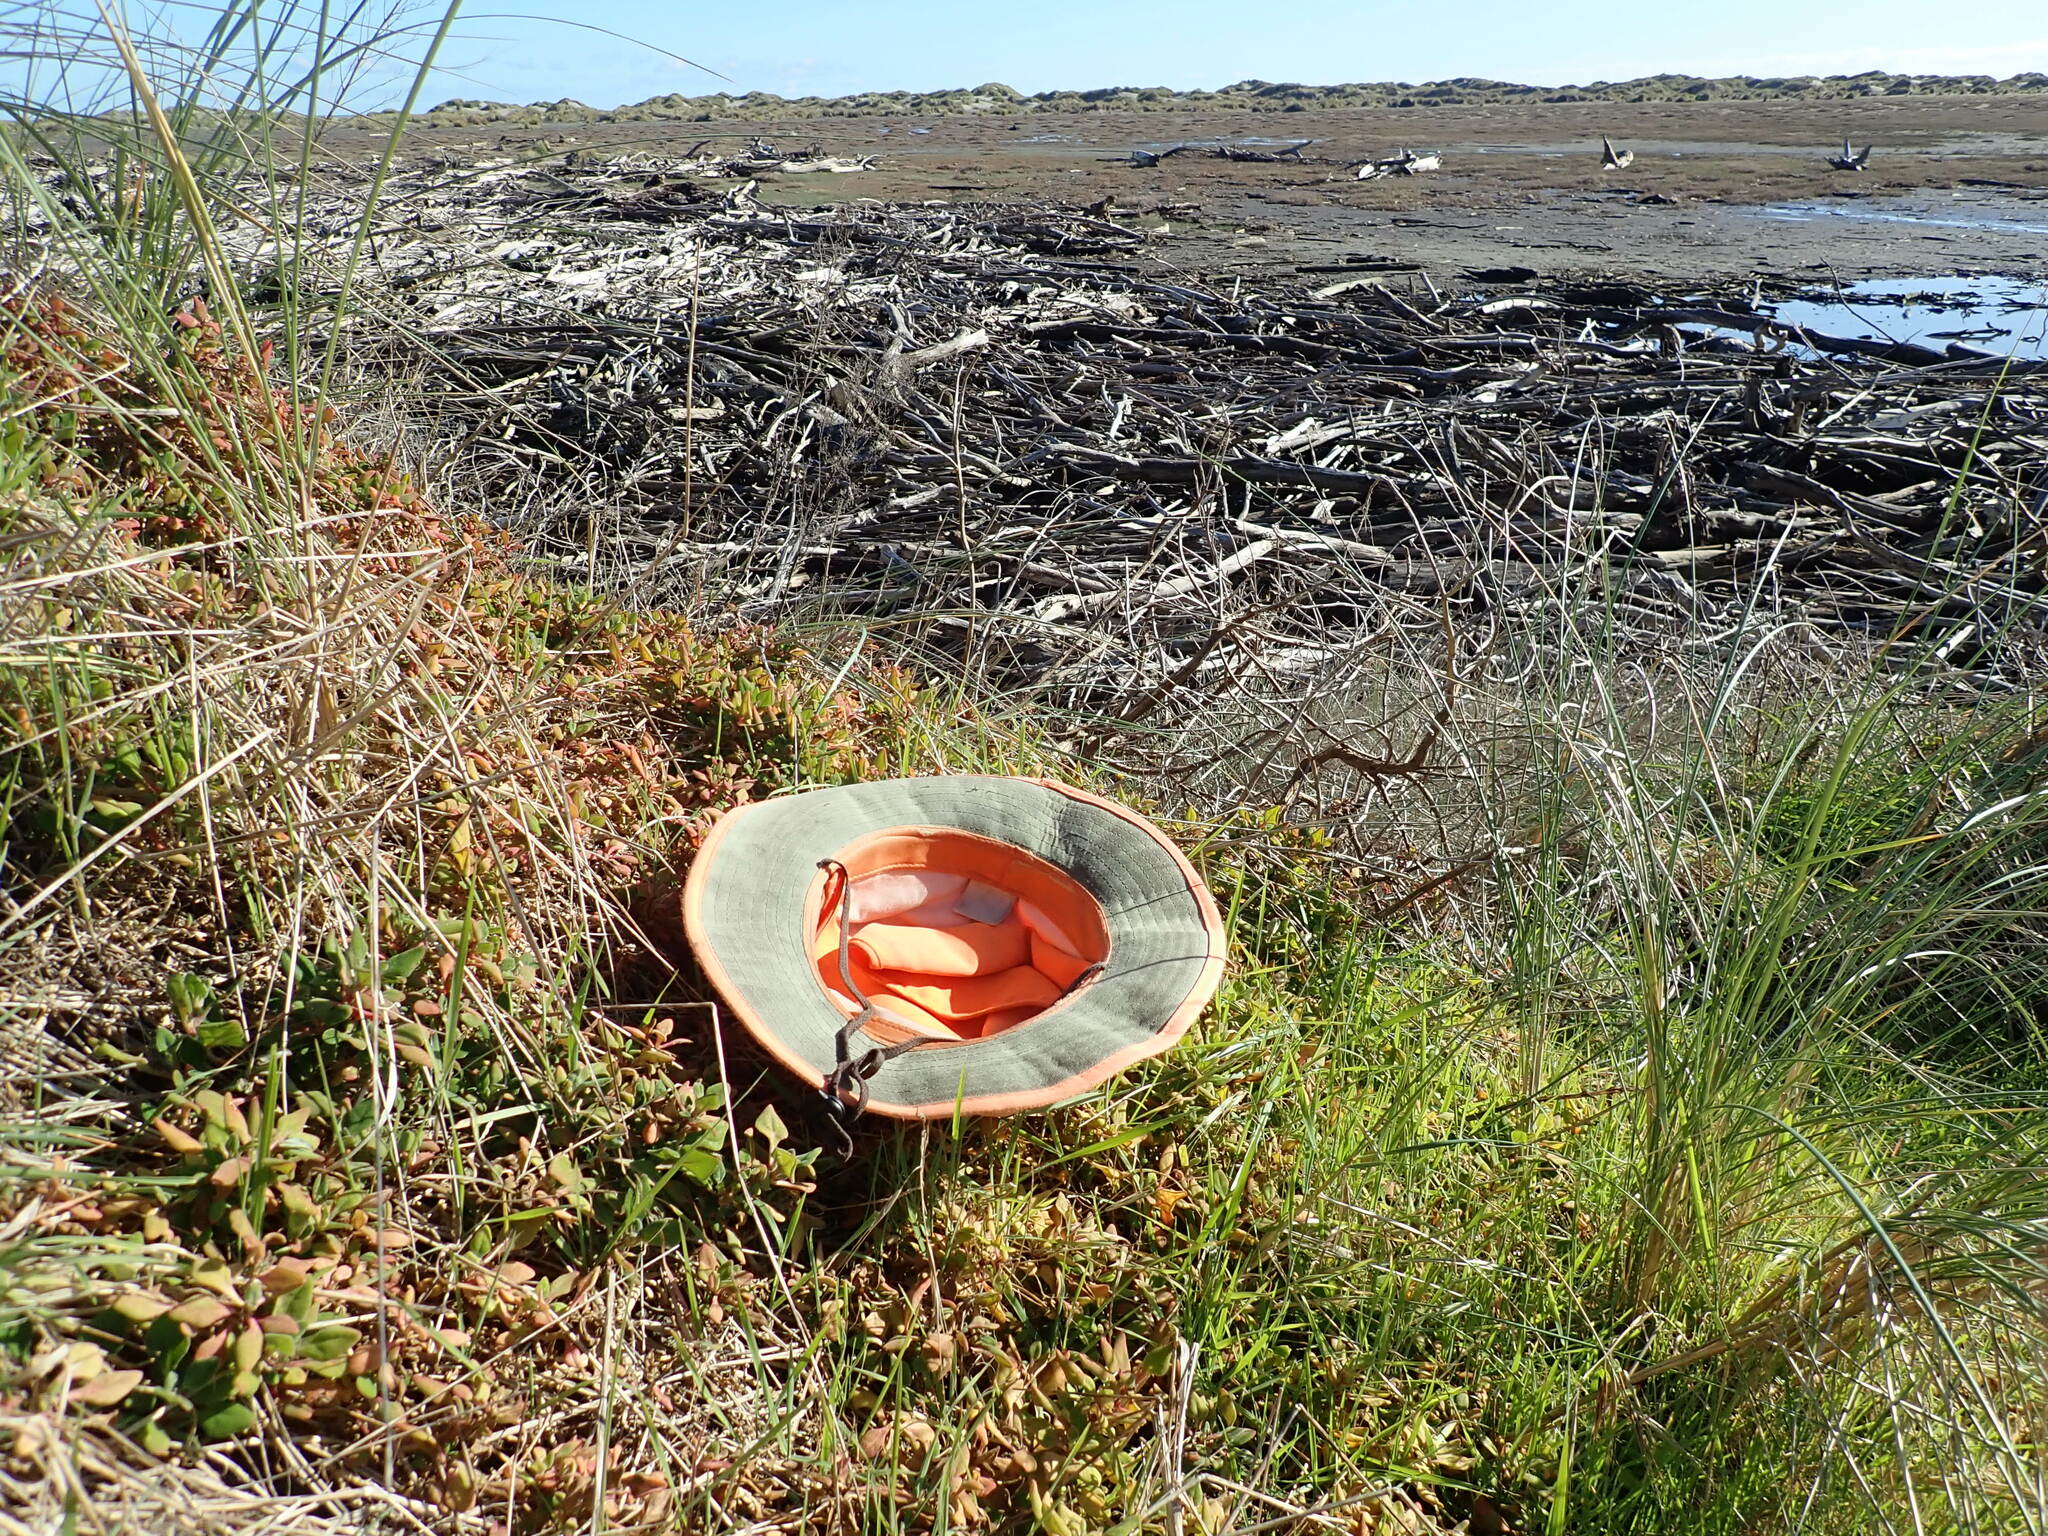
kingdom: Plantae
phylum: Tracheophyta
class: Magnoliopsida
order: Caryophyllales
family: Aizoaceae
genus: Tetragonia
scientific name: Tetragonia implexicoma
